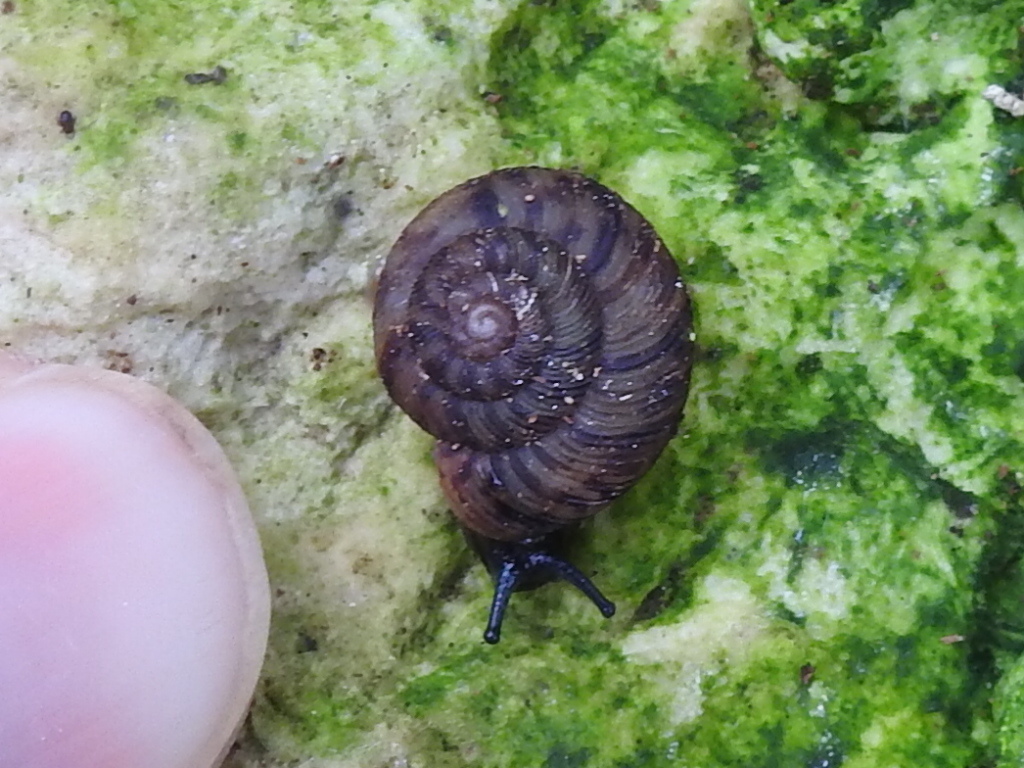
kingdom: Animalia
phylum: Mollusca
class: Gastropoda
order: Stylommatophora
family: Discidae
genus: Anguispira
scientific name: Anguispira strongylodes
